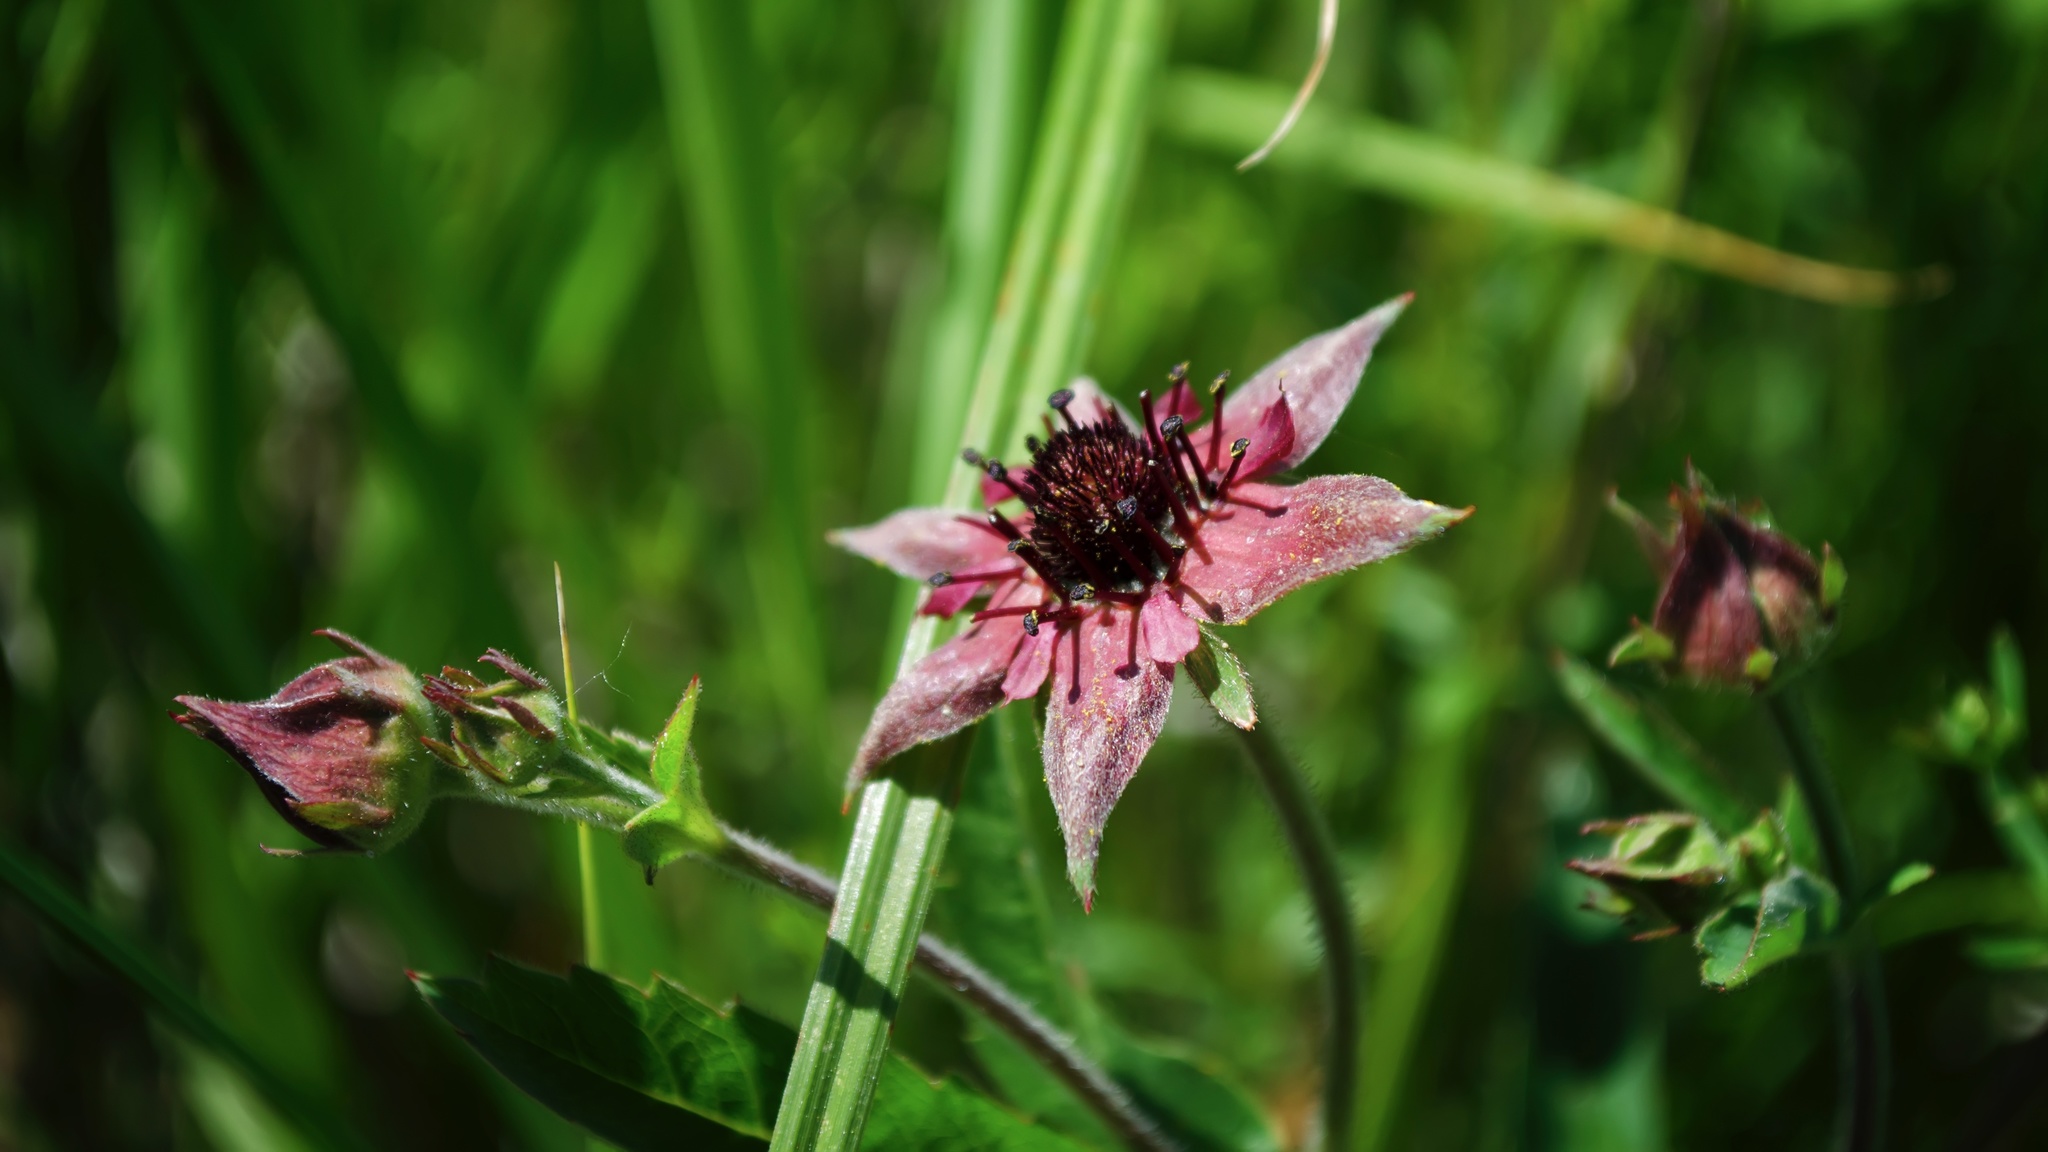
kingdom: Plantae
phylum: Tracheophyta
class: Magnoliopsida
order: Rosales
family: Rosaceae
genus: Comarum
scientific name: Comarum palustre
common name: Marsh cinquefoil
